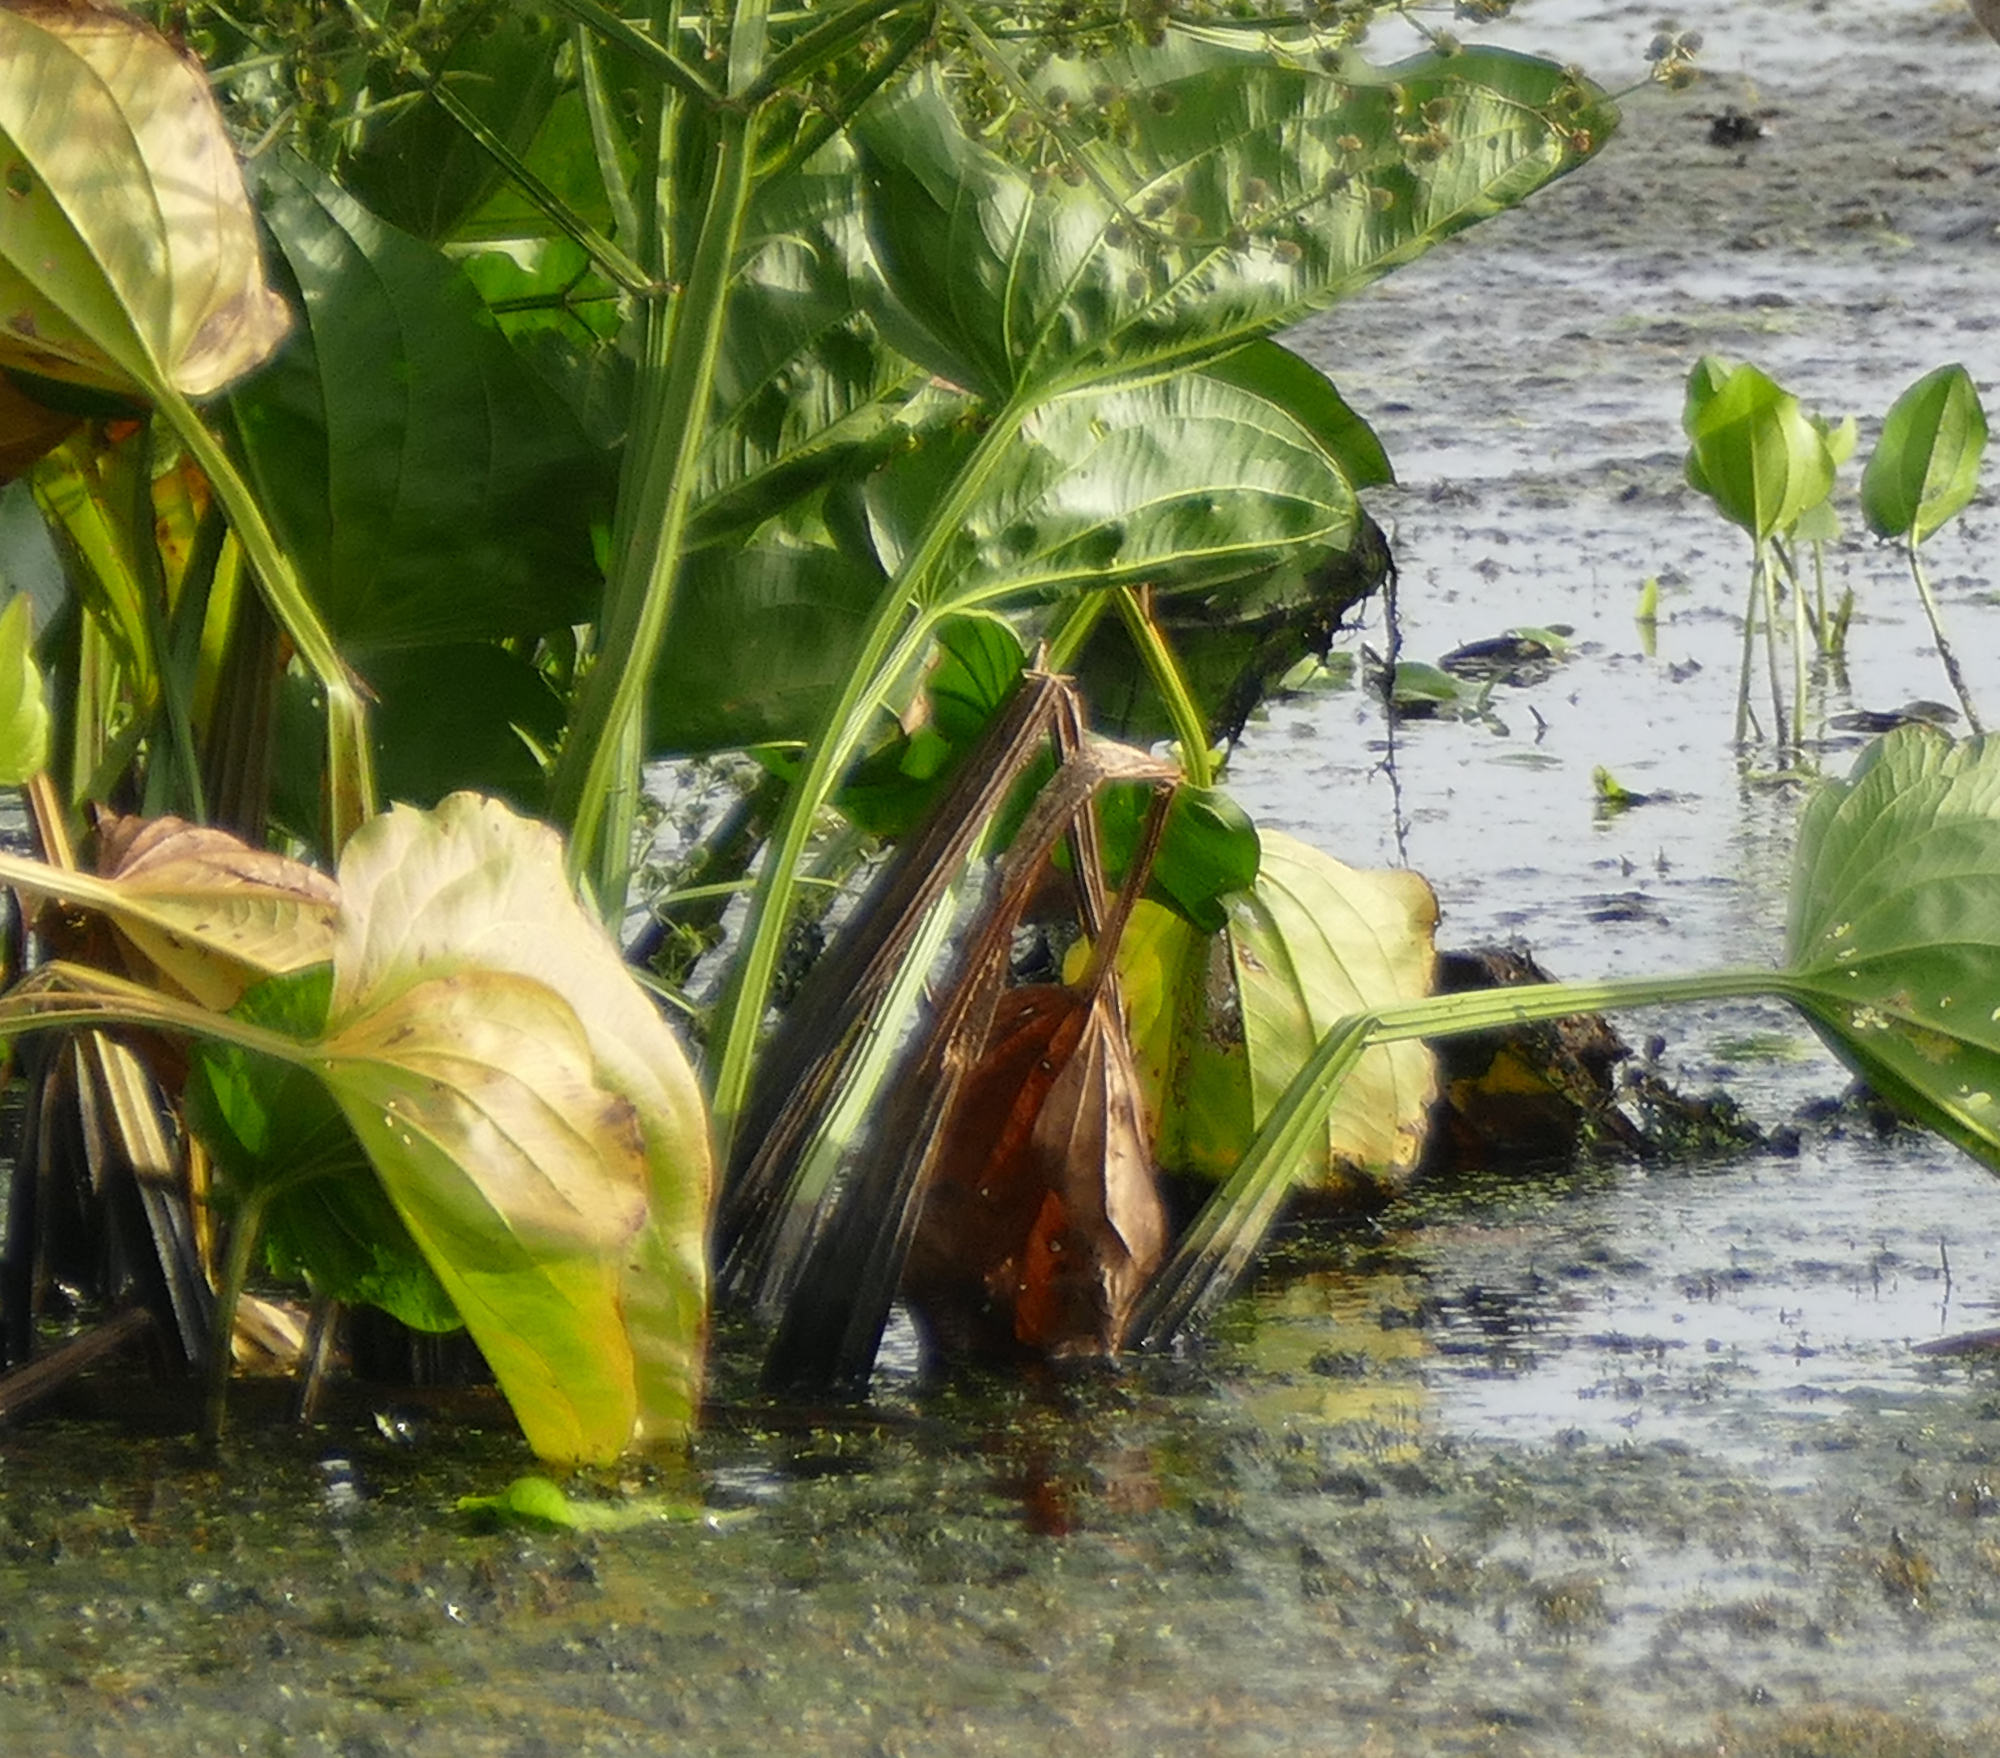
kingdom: Plantae
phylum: Tracheophyta
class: Liliopsida
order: Alismatales
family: Alismataceae
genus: Echinodorus
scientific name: Echinodorus berteroi
